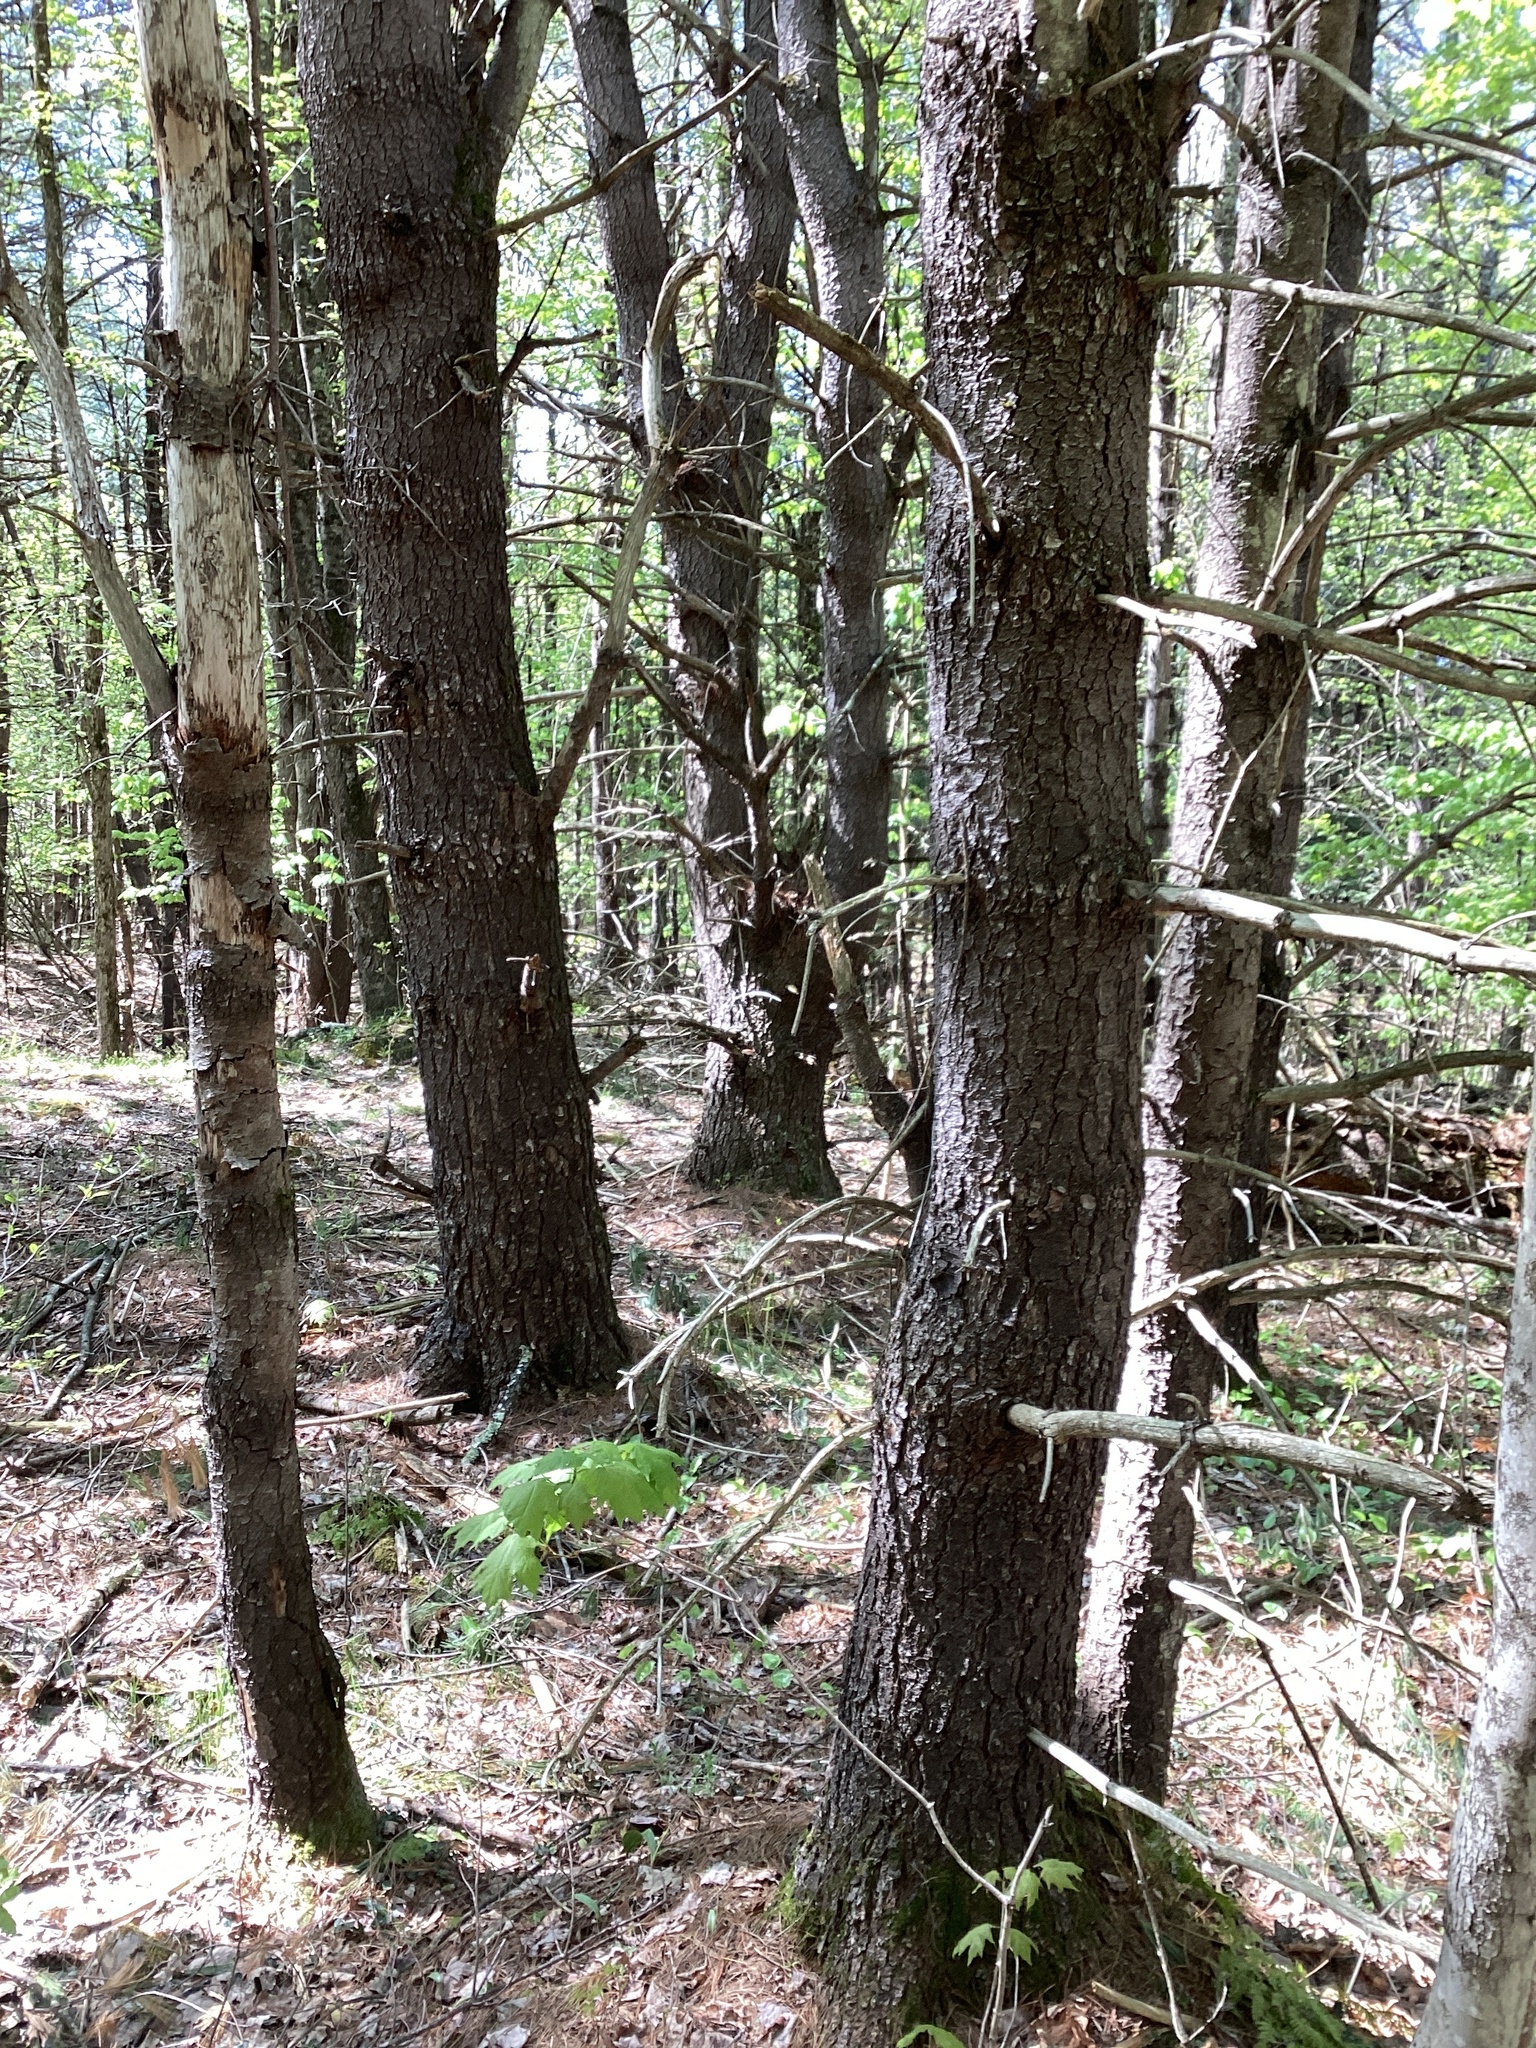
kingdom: Plantae
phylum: Tracheophyta
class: Pinopsida
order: Pinales
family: Pinaceae
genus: Pinus
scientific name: Pinus strobus
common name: Weymouth pine
